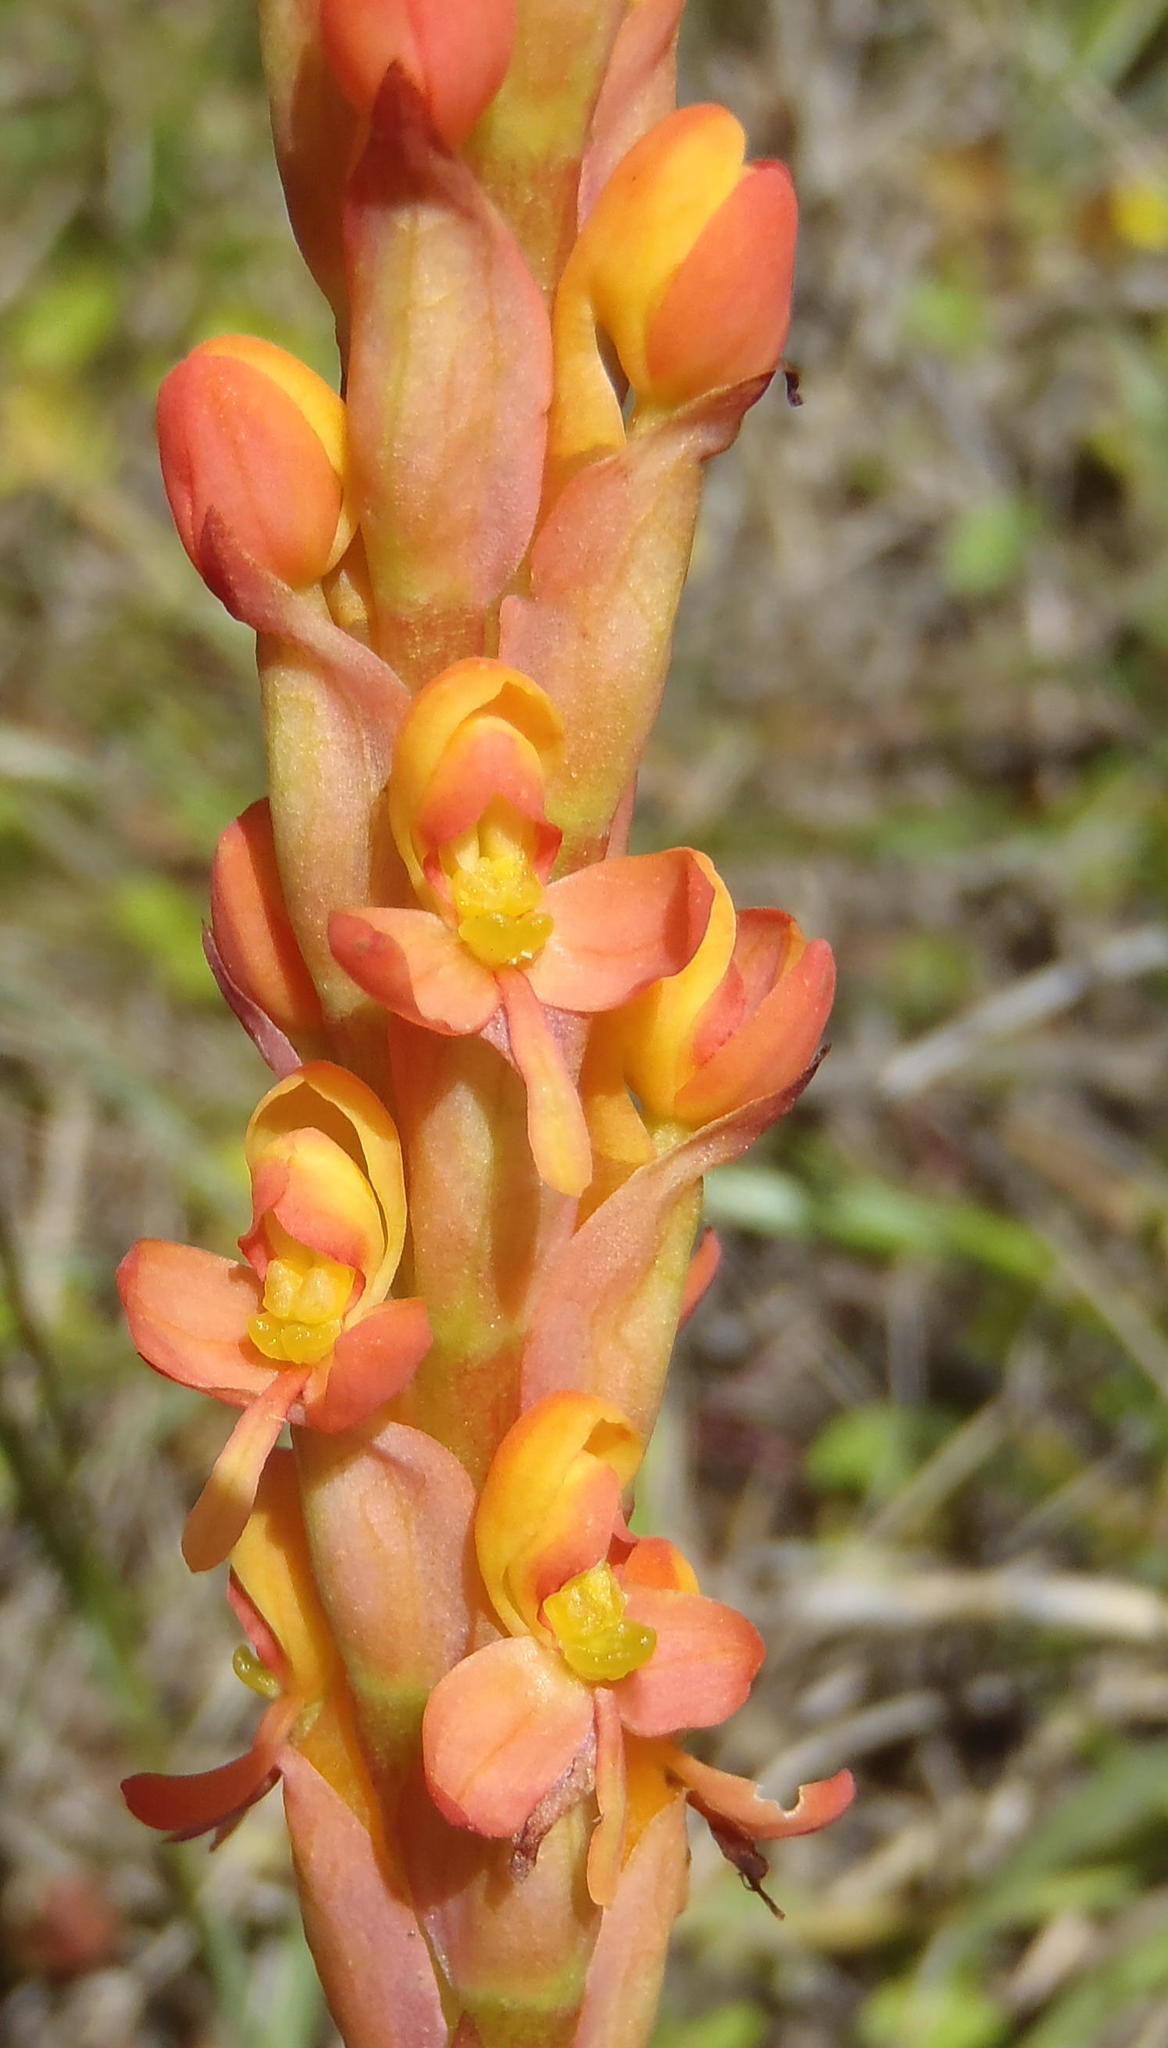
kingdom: Plantae
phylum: Tracheophyta
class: Liliopsida
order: Asparagales
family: Orchidaceae
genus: Disa
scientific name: Disa chrysostachya
